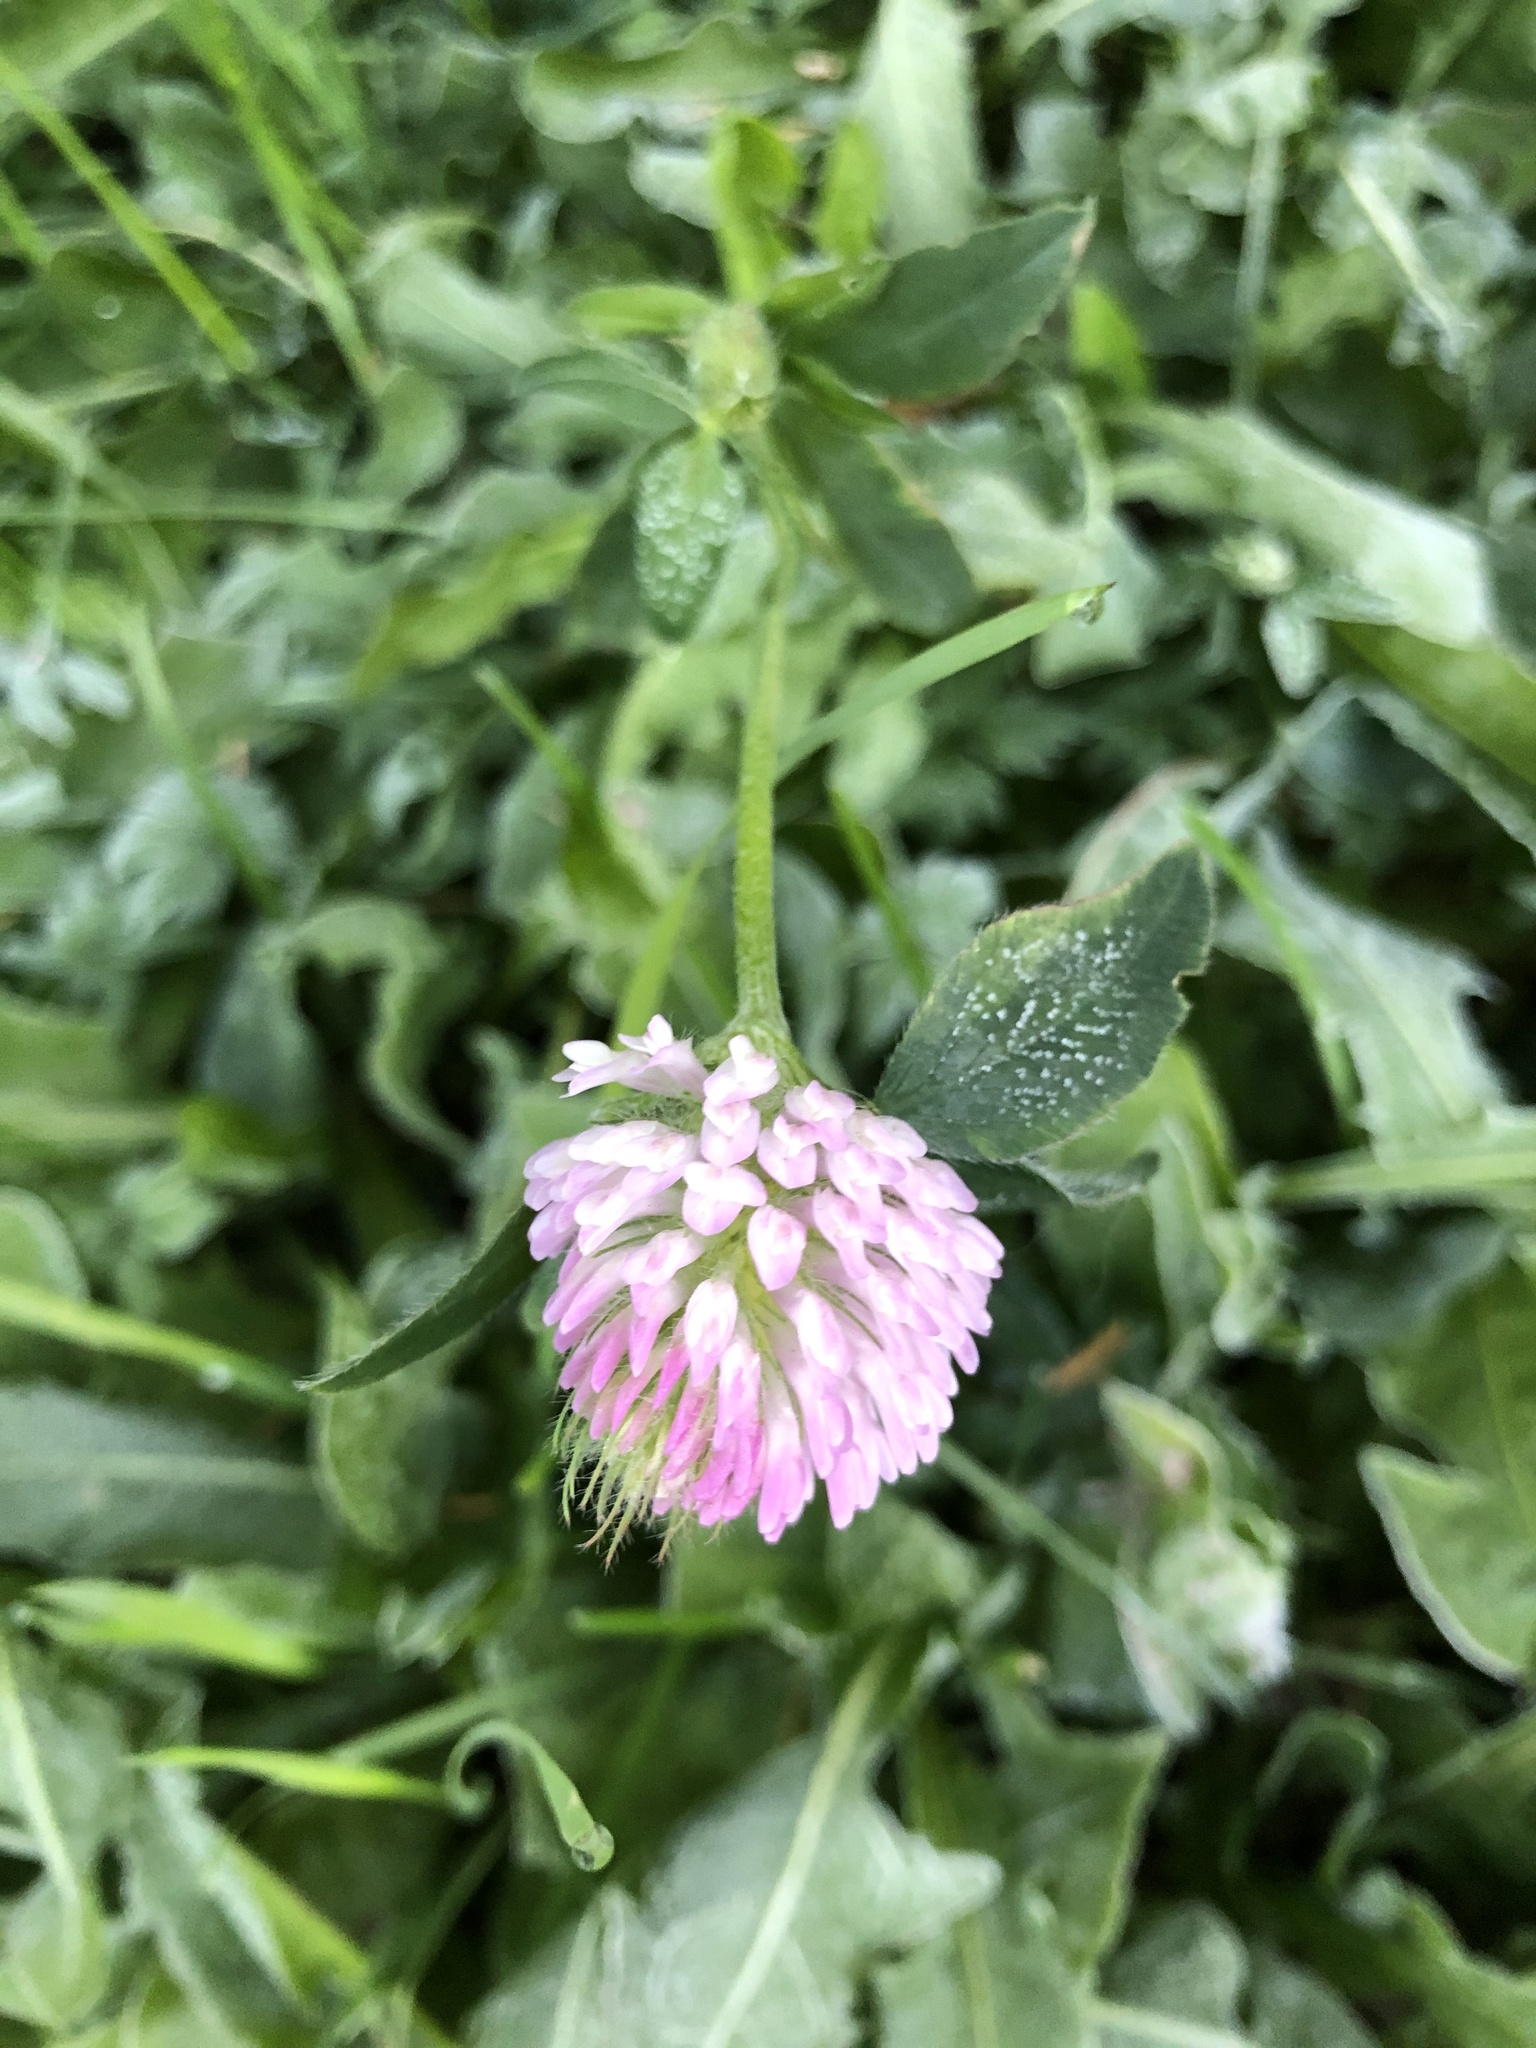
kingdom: Plantae
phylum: Tracheophyta
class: Magnoliopsida
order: Fabales
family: Fabaceae
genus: Trifolium
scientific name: Trifolium pratense
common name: Red clover
